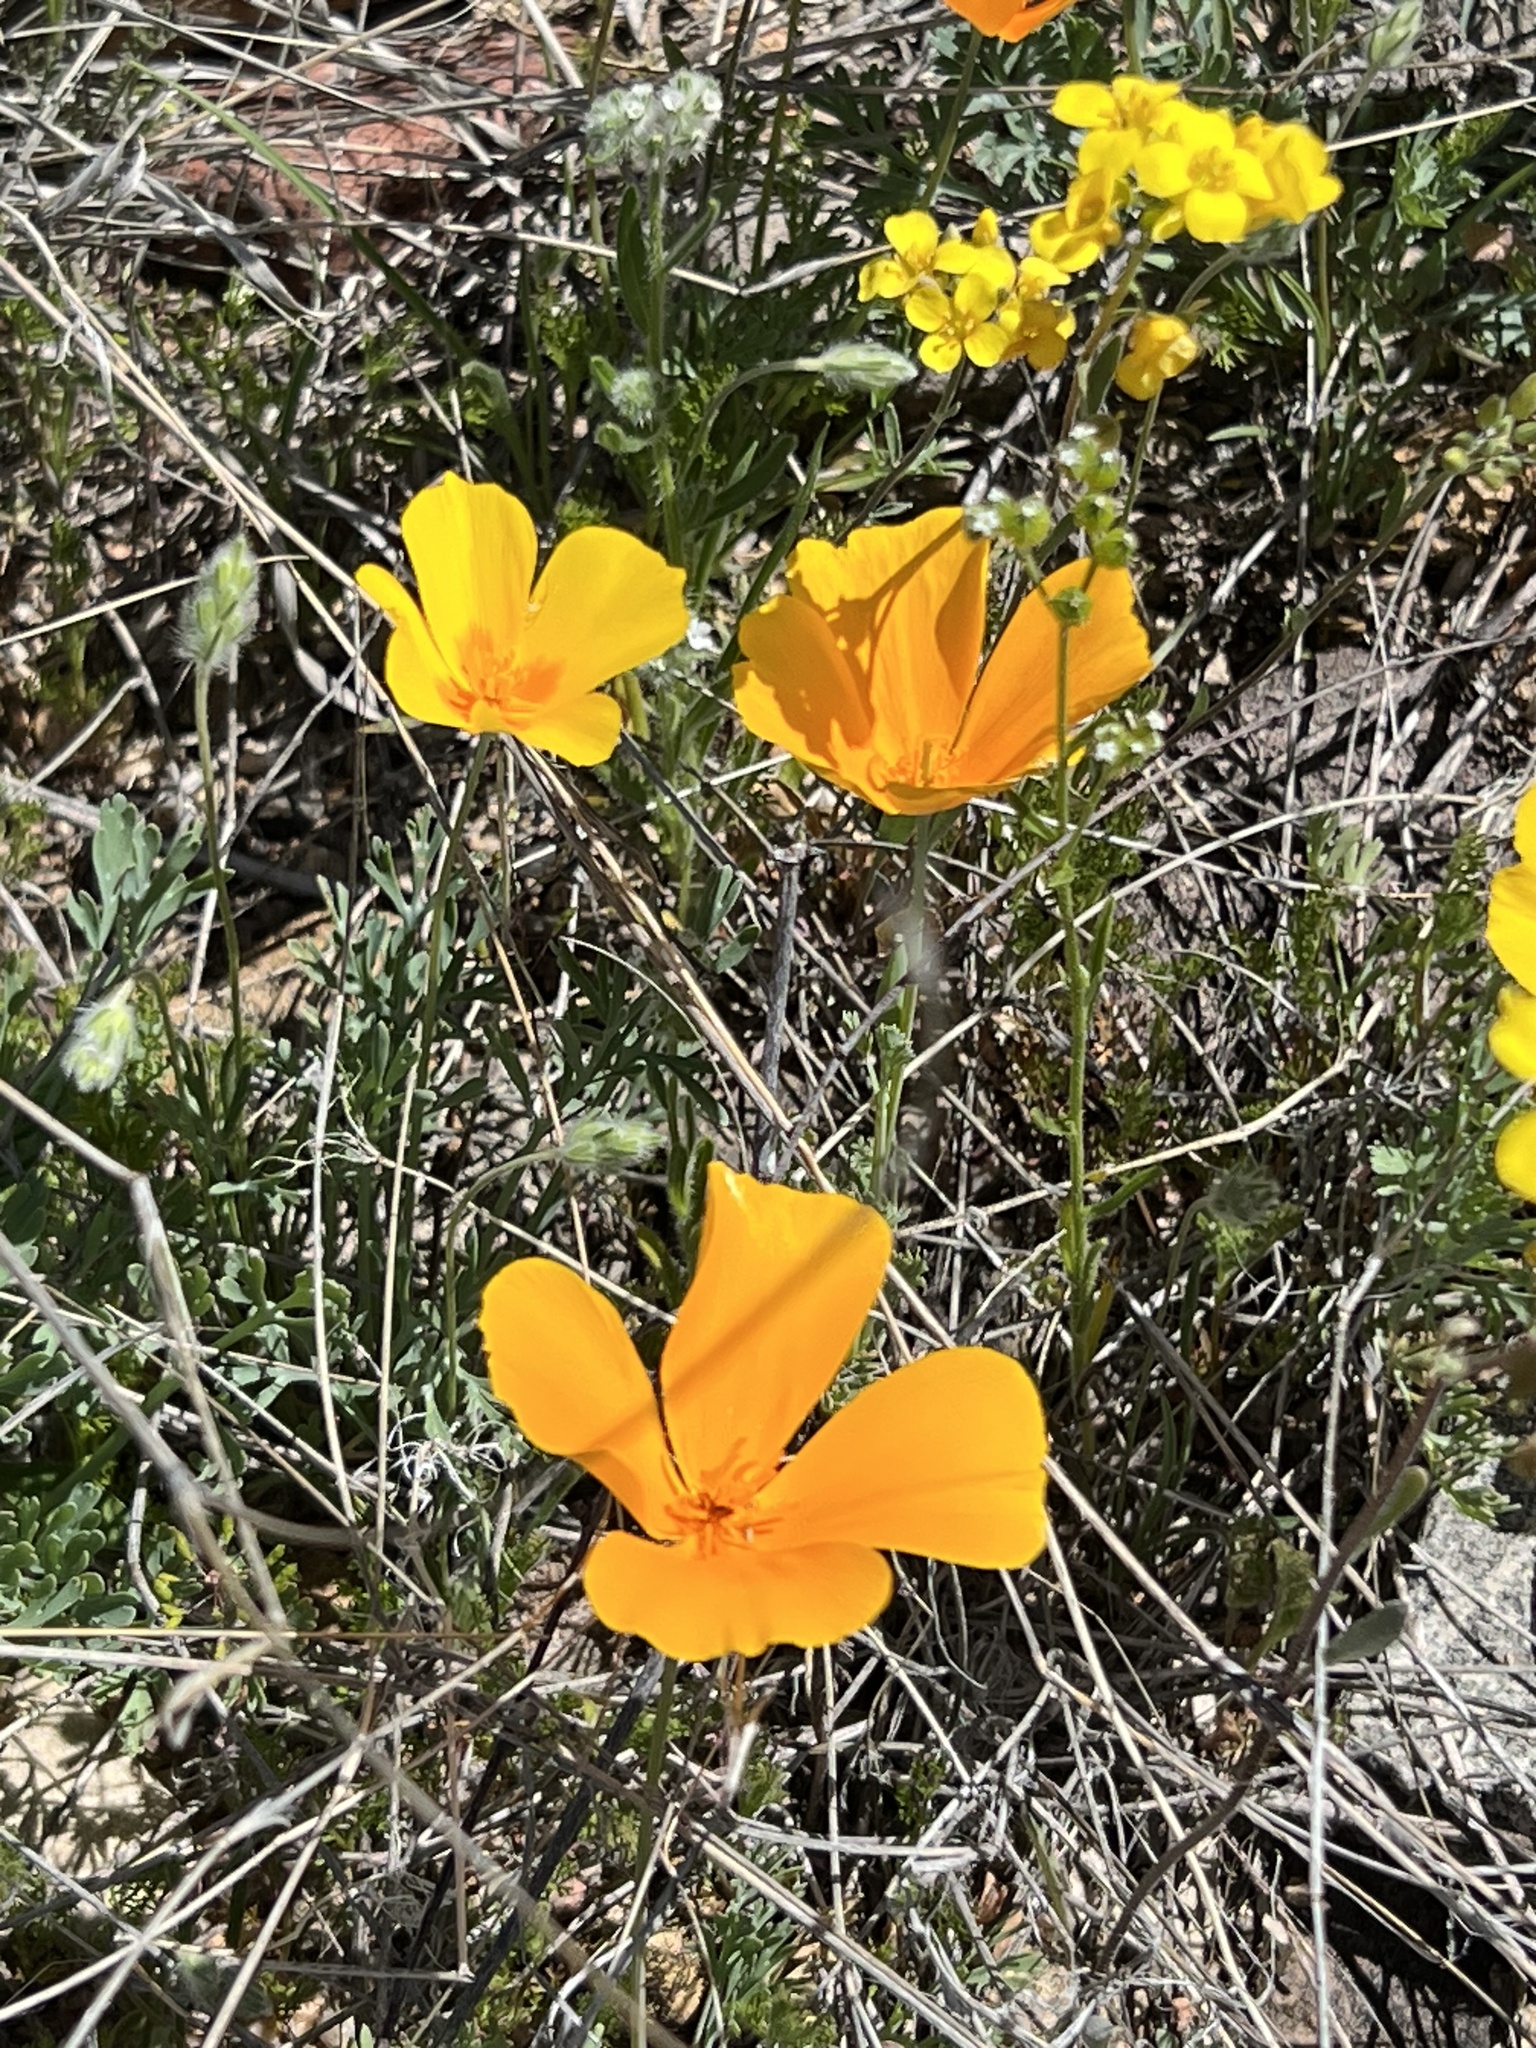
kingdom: Plantae
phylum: Tracheophyta
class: Magnoliopsida
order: Ranunculales
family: Papaveraceae
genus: Eschscholzia
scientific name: Eschscholzia californica
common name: California poppy
